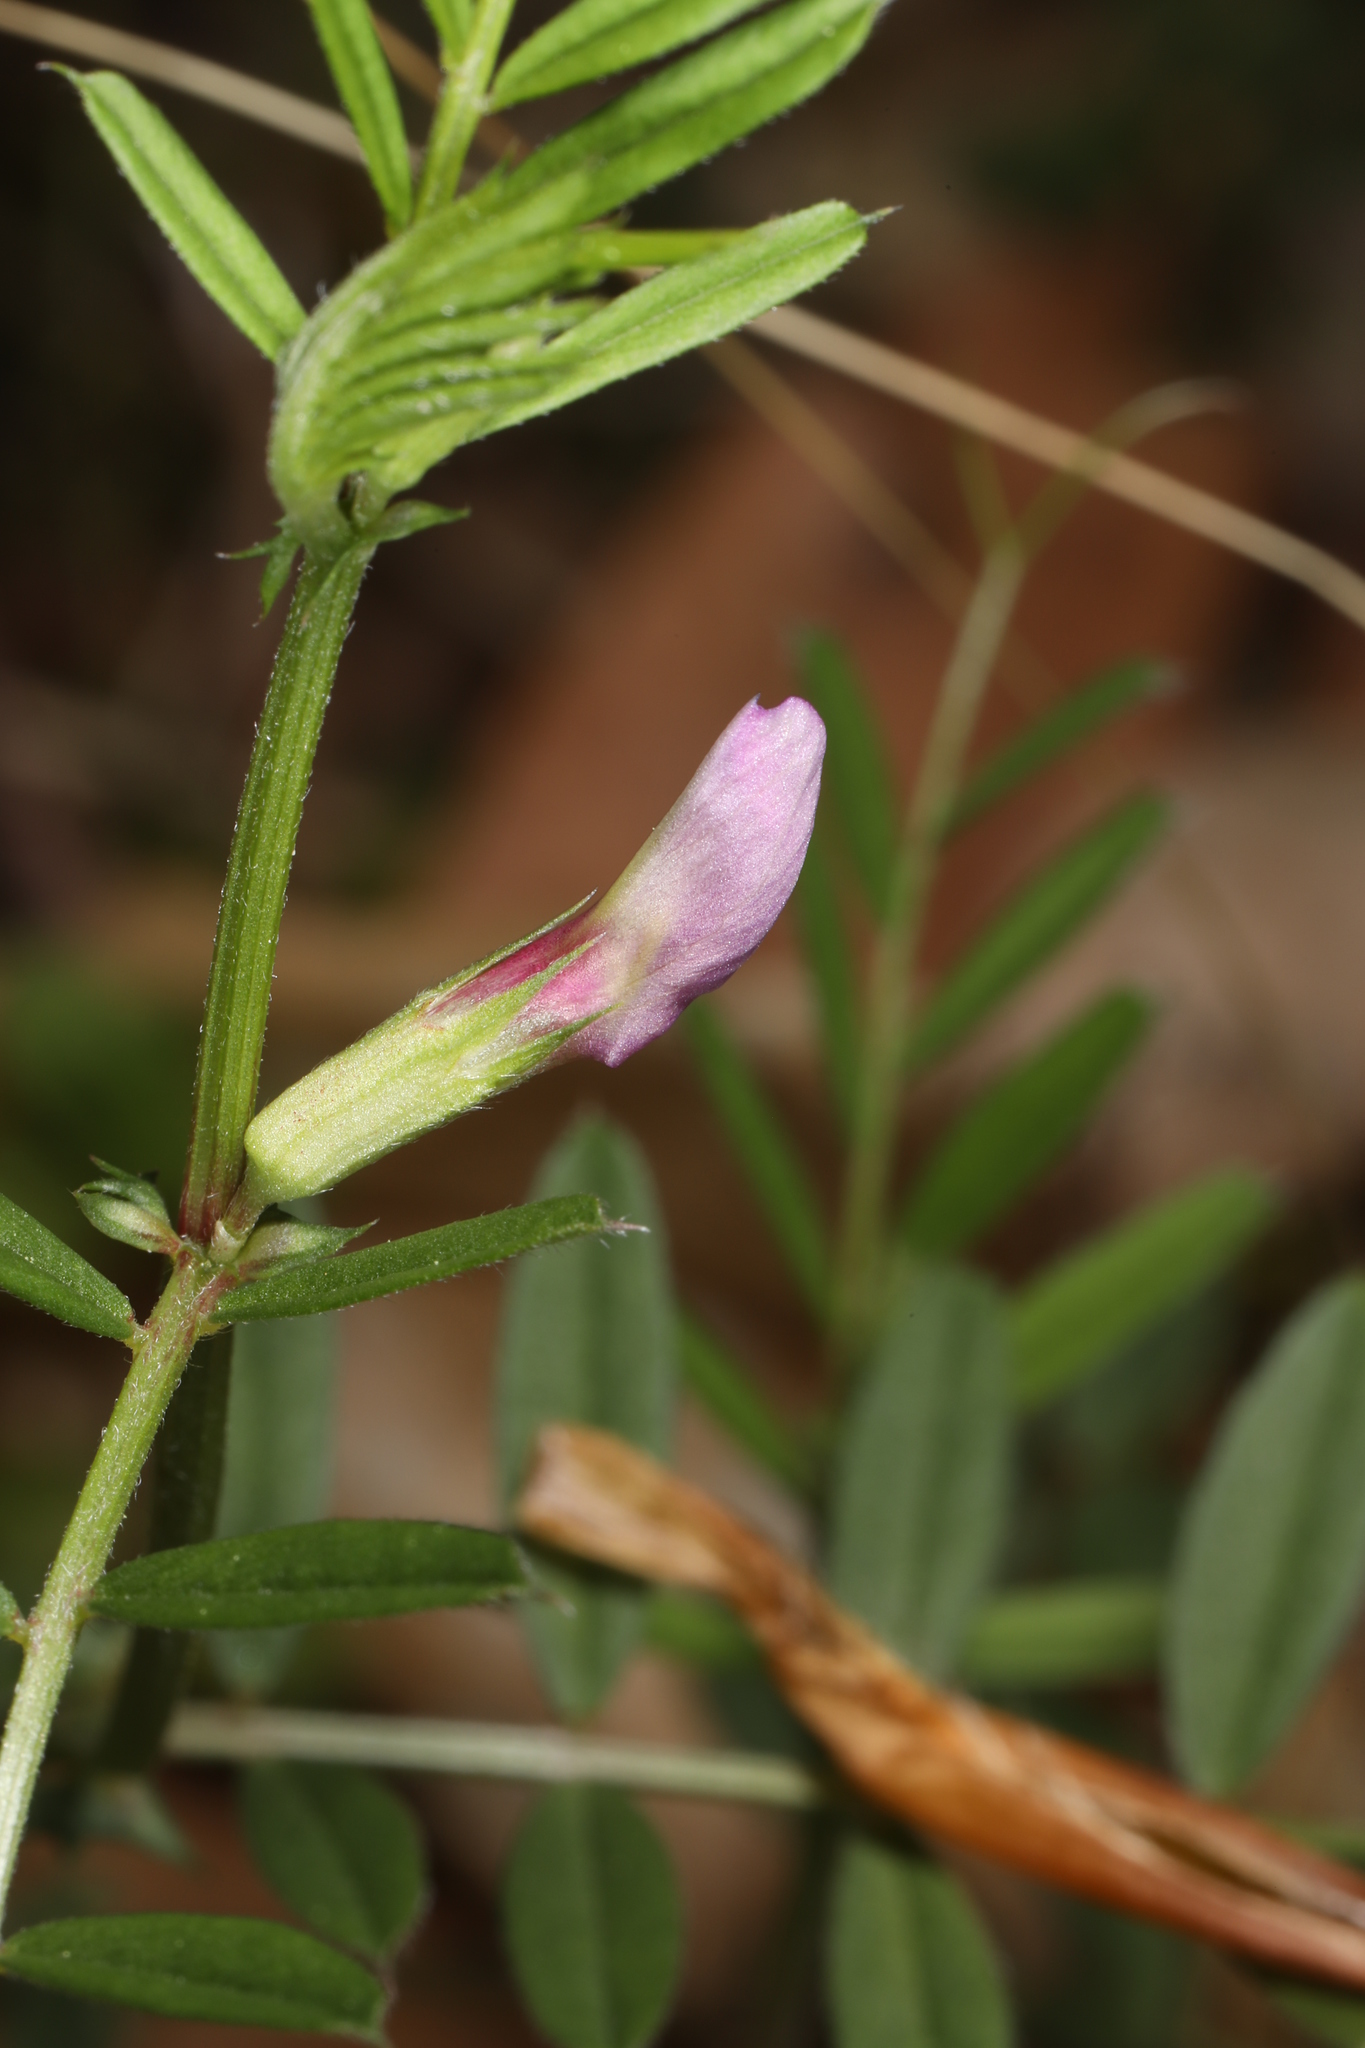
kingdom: Plantae
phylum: Tracheophyta
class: Magnoliopsida
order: Fabales
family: Fabaceae
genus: Vicia
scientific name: Vicia sativa
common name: Garden vetch
